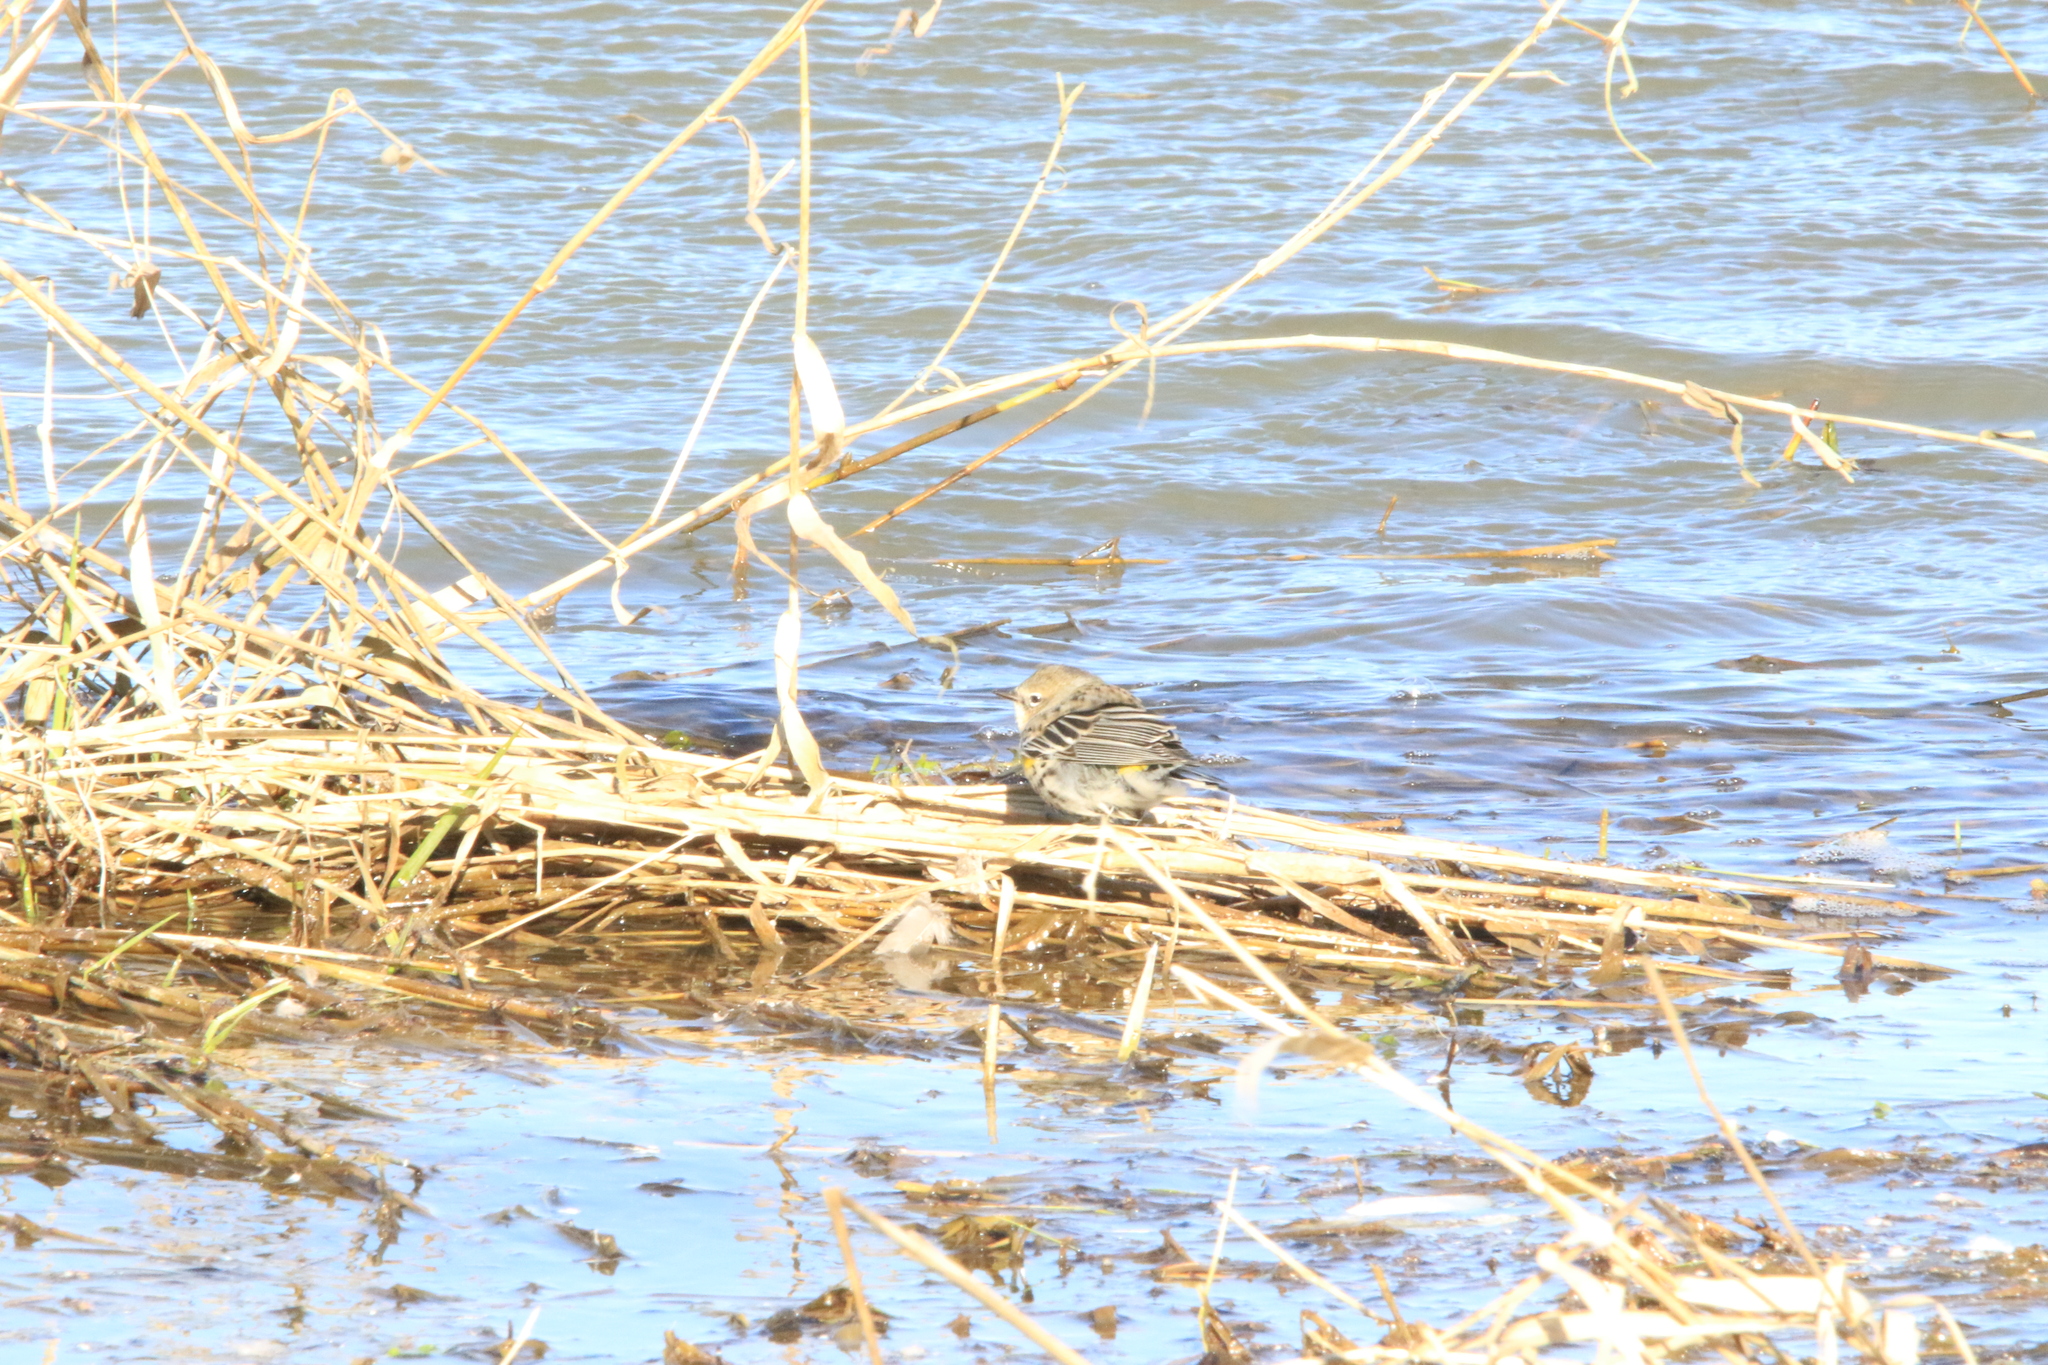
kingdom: Animalia
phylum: Chordata
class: Aves
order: Passeriformes
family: Parulidae
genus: Setophaga
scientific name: Setophaga coronata
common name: Myrtle warbler
